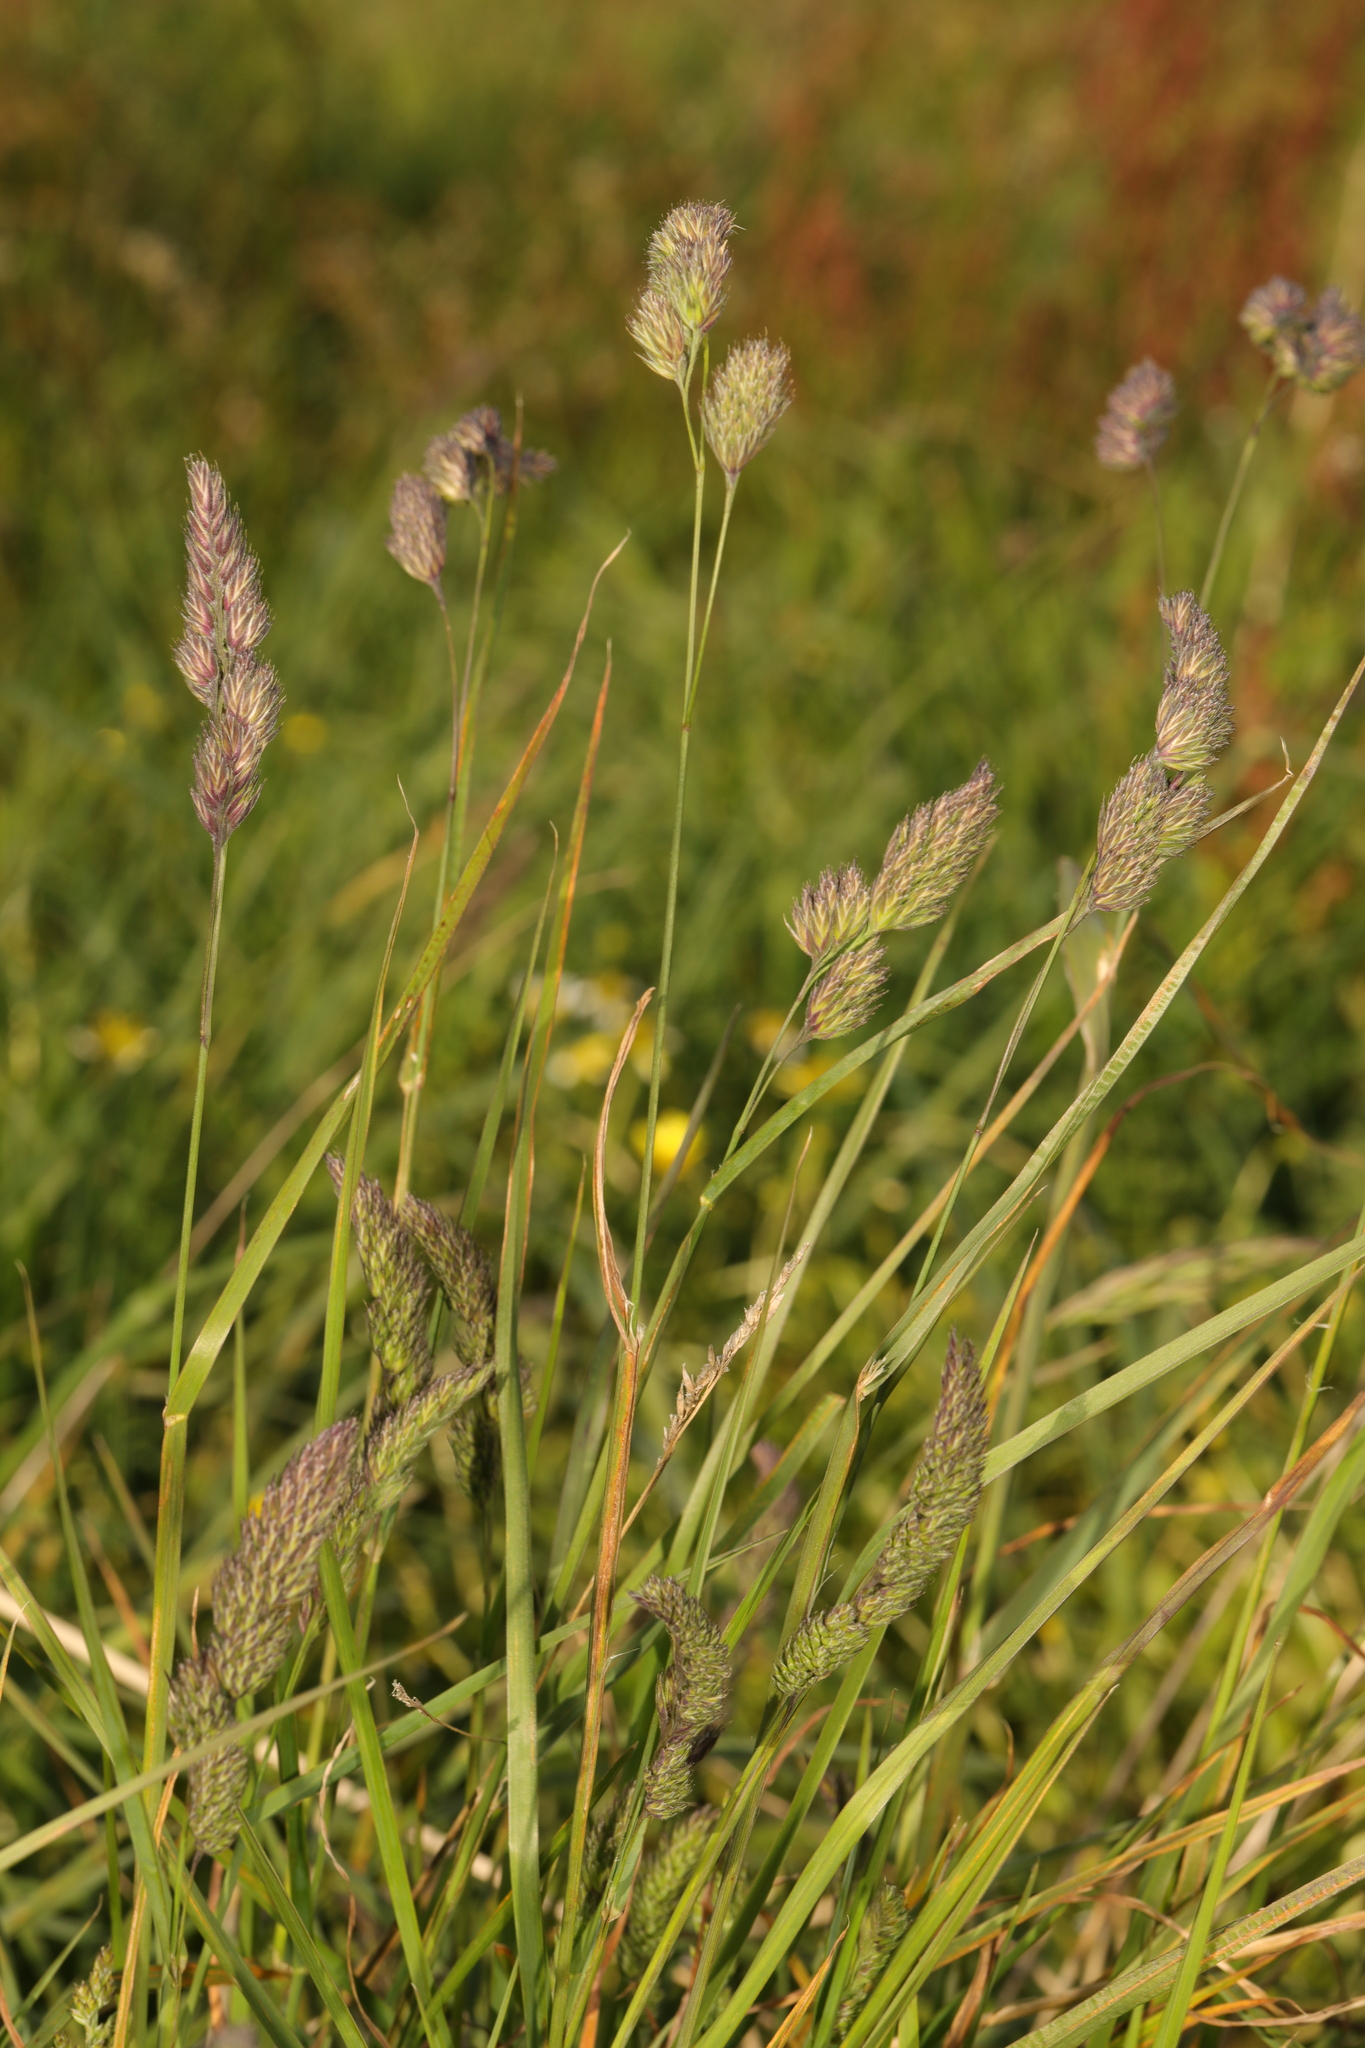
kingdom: Plantae
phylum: Tracheophyta
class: Liliopsida
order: Poales
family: Poaceae
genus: Dactylis
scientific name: Dactylis glomerata
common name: Orchardgrass
